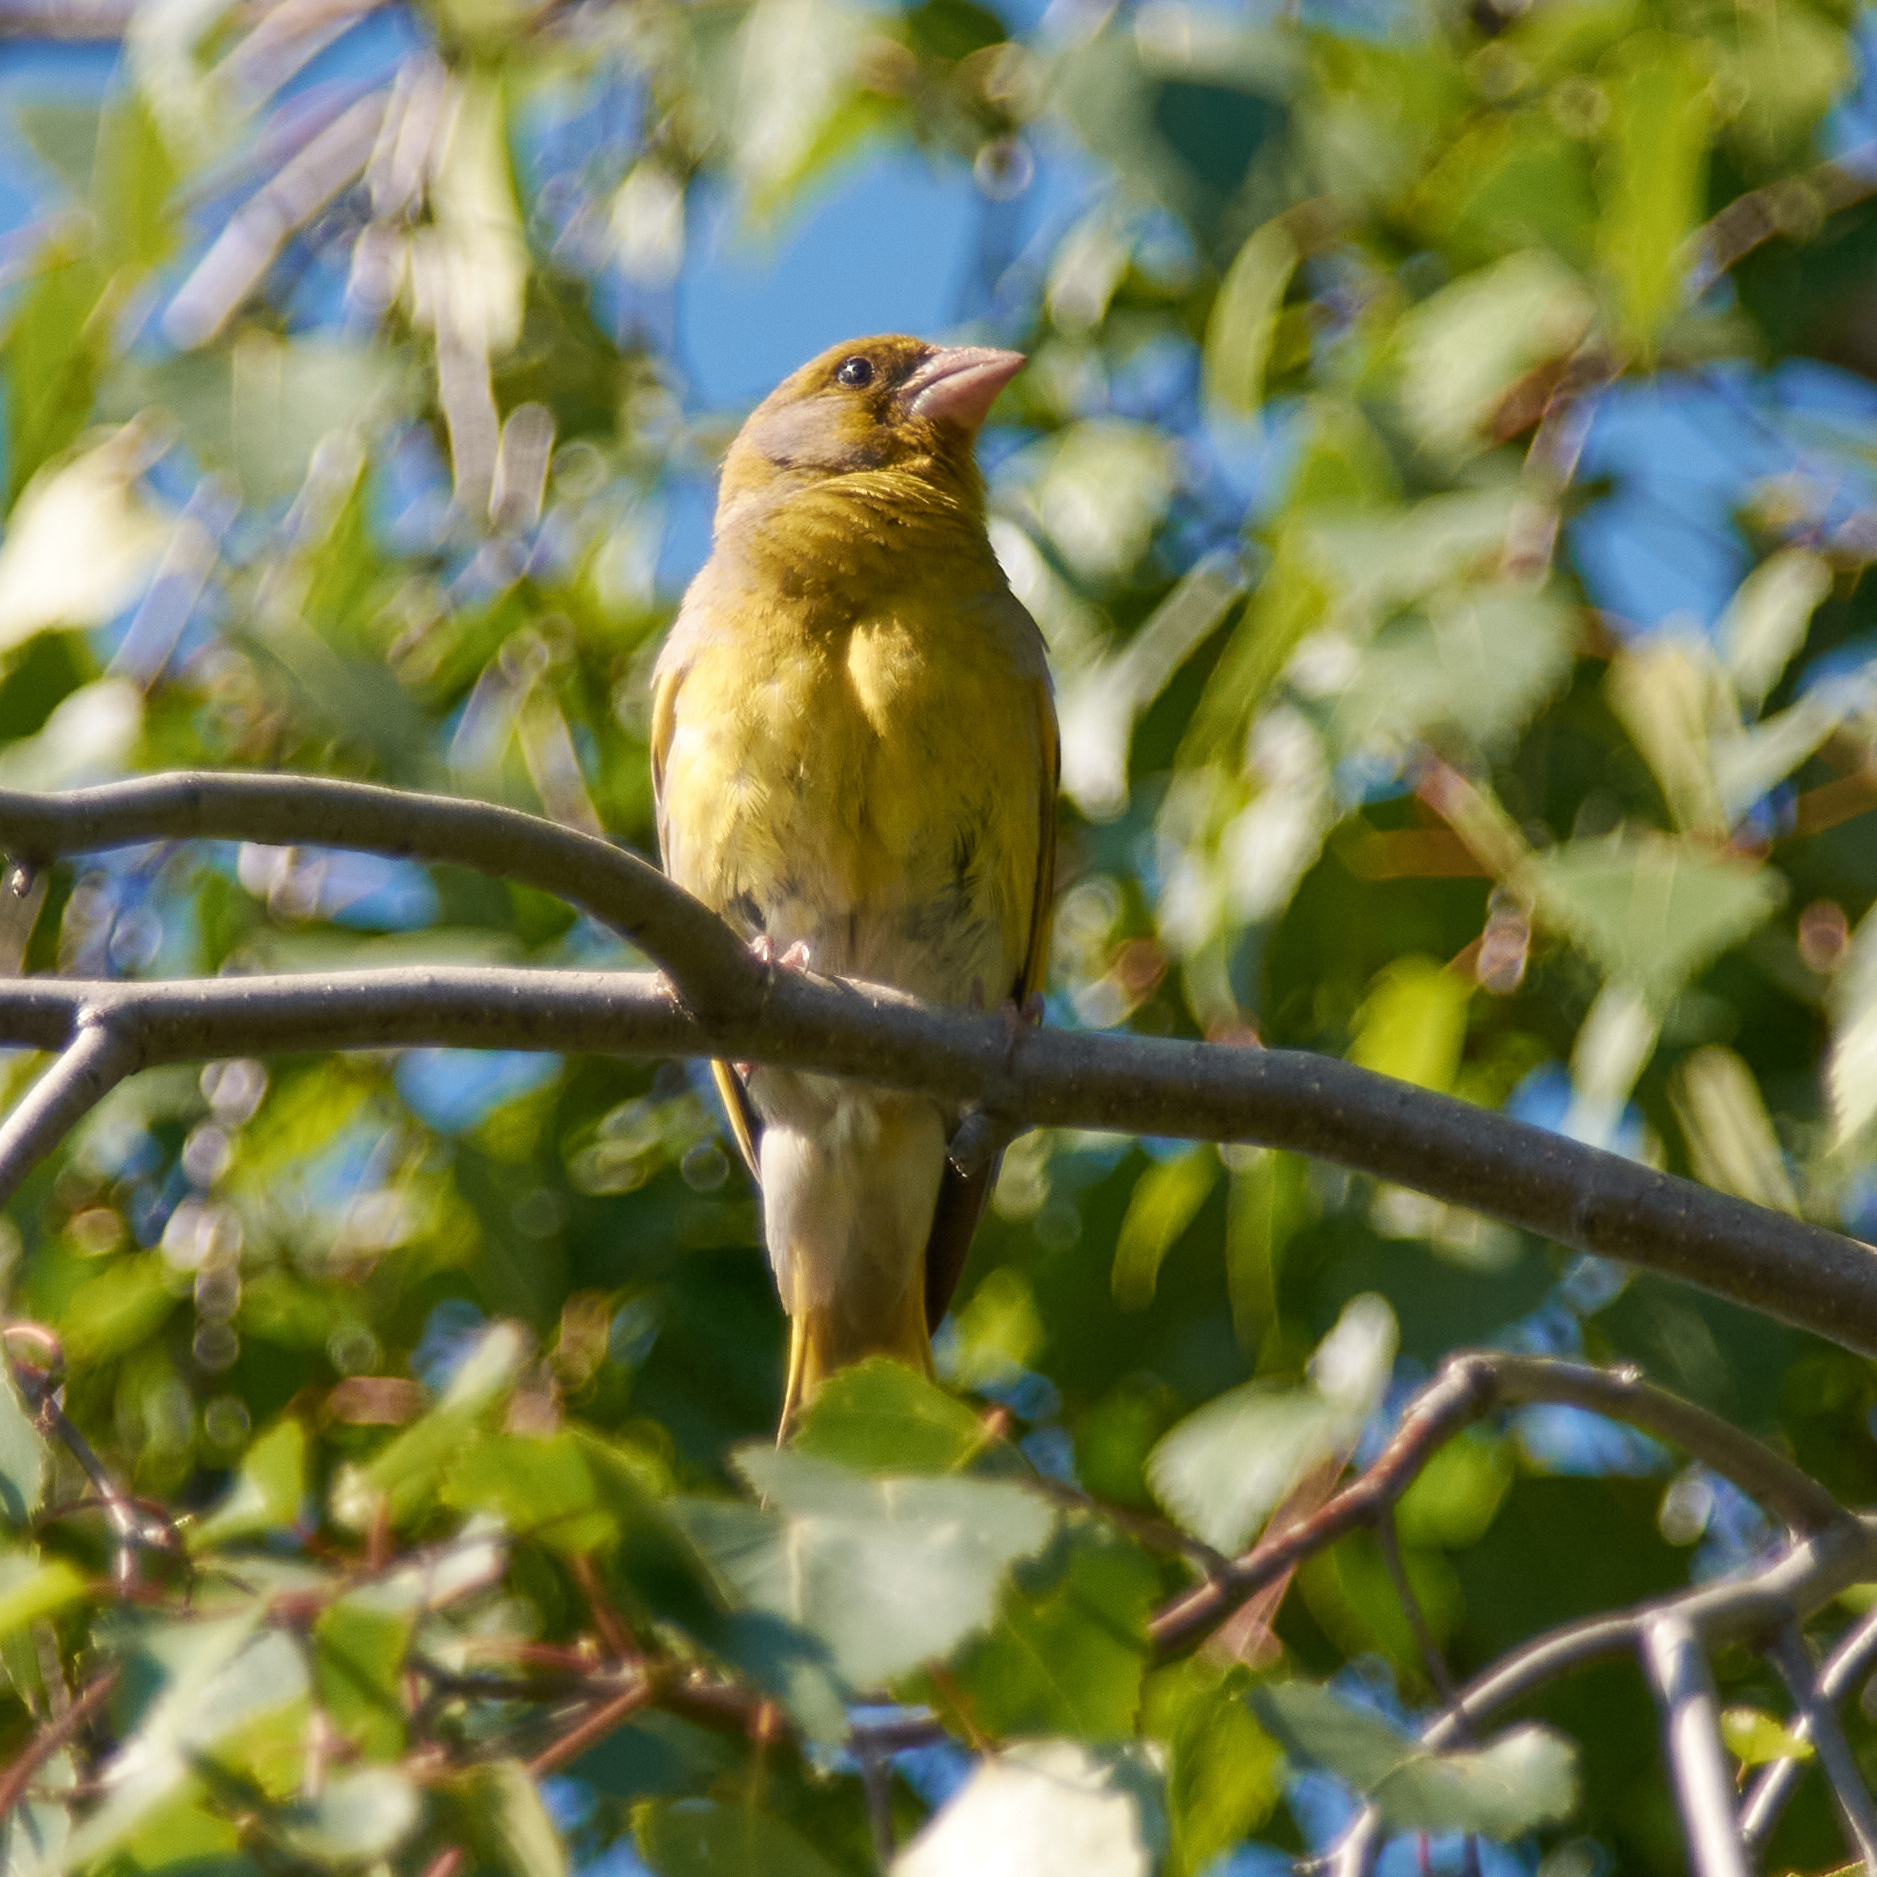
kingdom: Plantae
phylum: Tracheophyta
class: Liliopsida
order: Poales
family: Poaceae
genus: Chloris
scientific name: Chloris chloris
